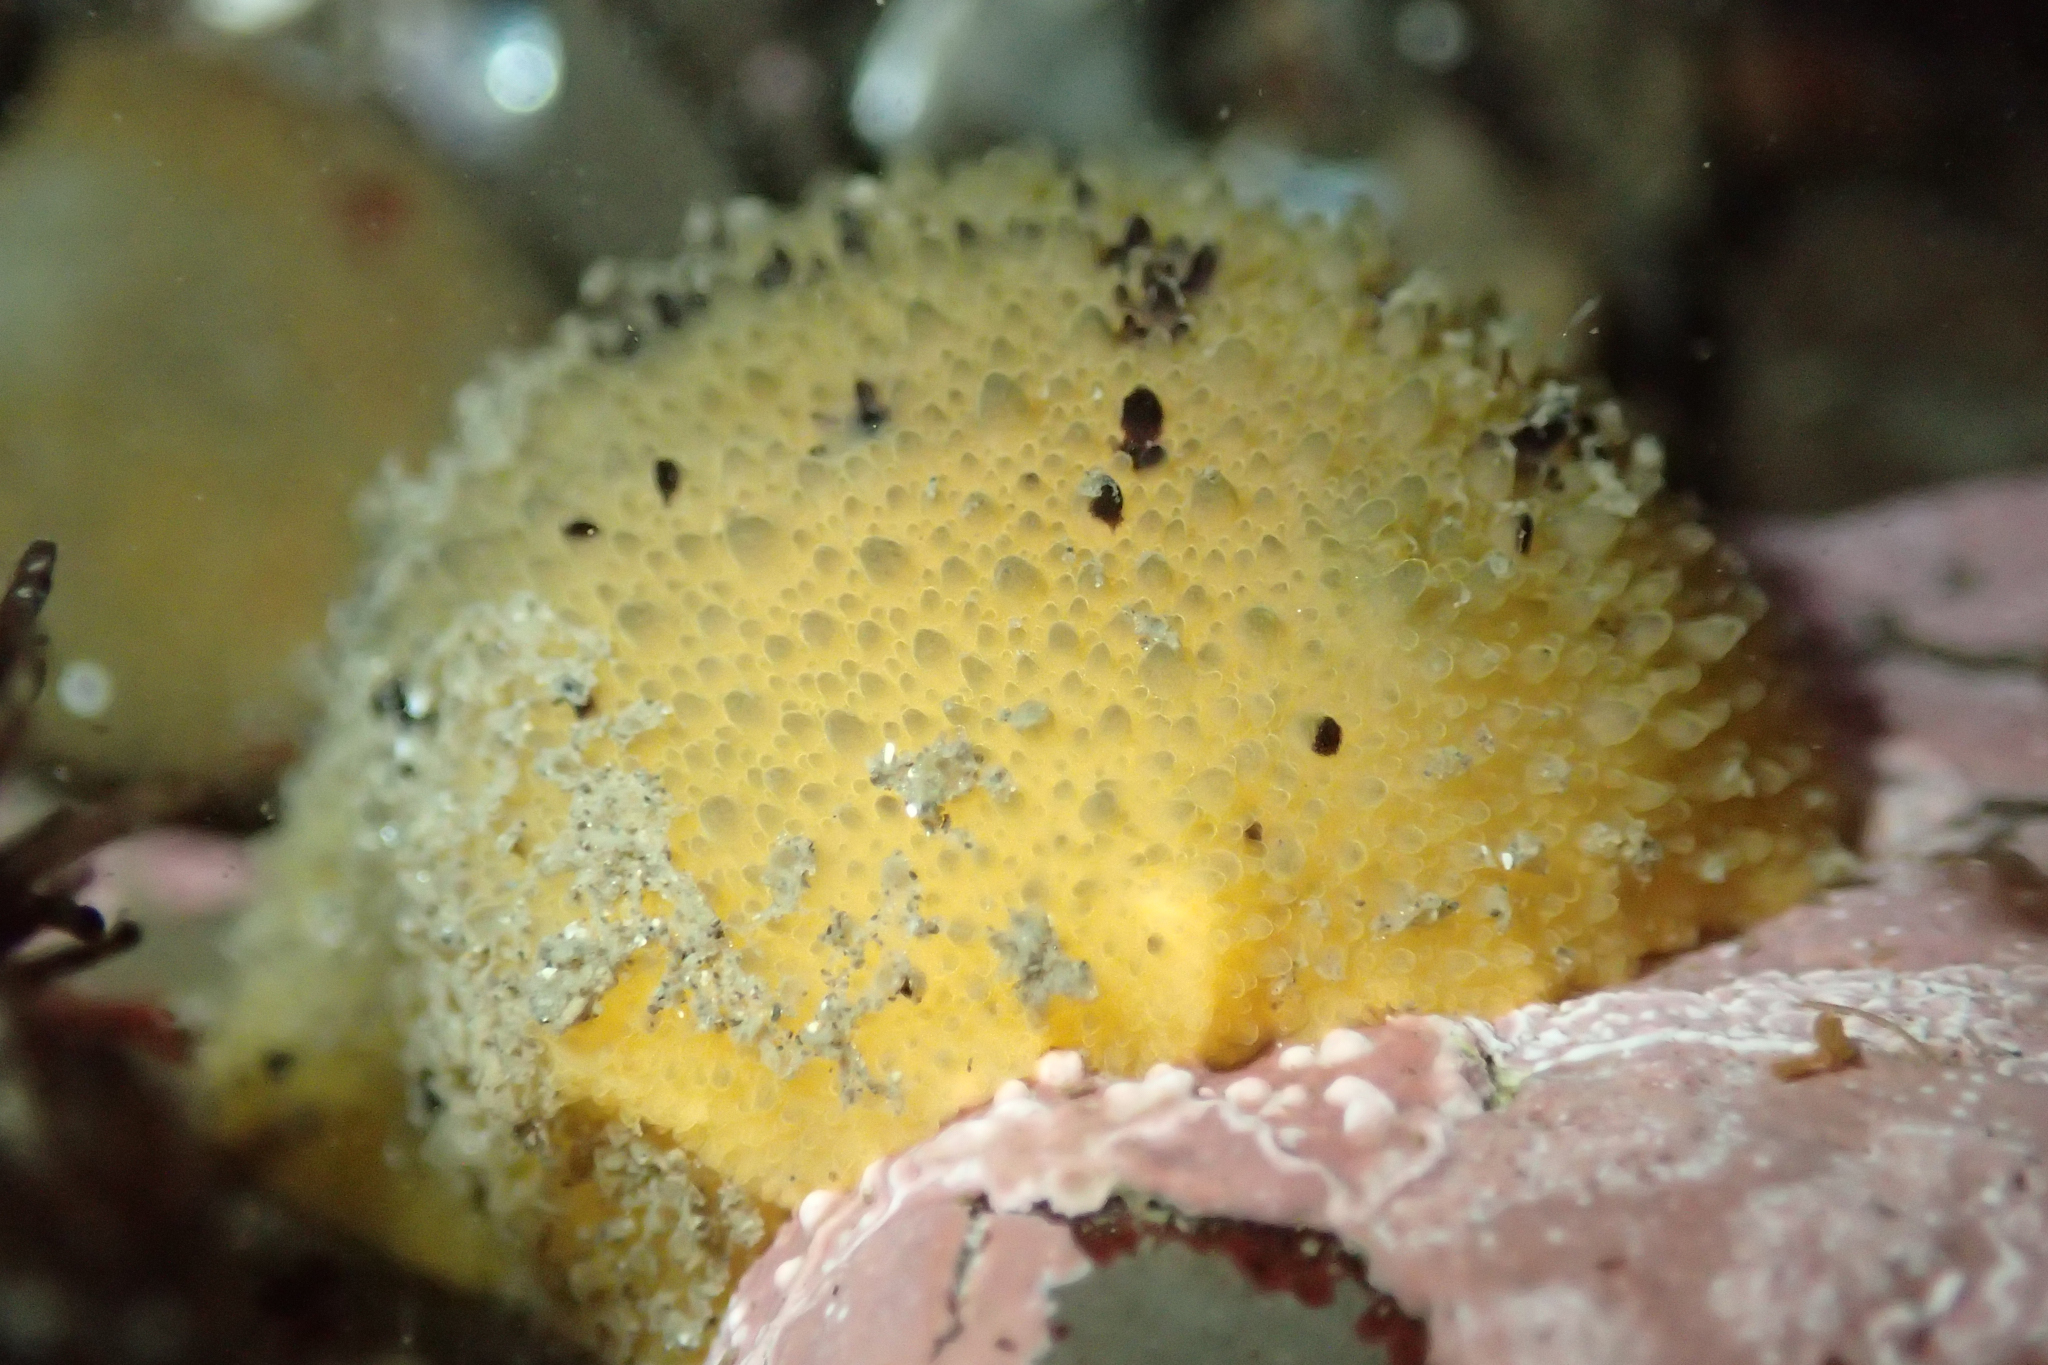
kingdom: Animalia
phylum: Mollusca
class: Gastropoda
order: Nudibranchia
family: Dorididae
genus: Doris
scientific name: Doris montereyensis
